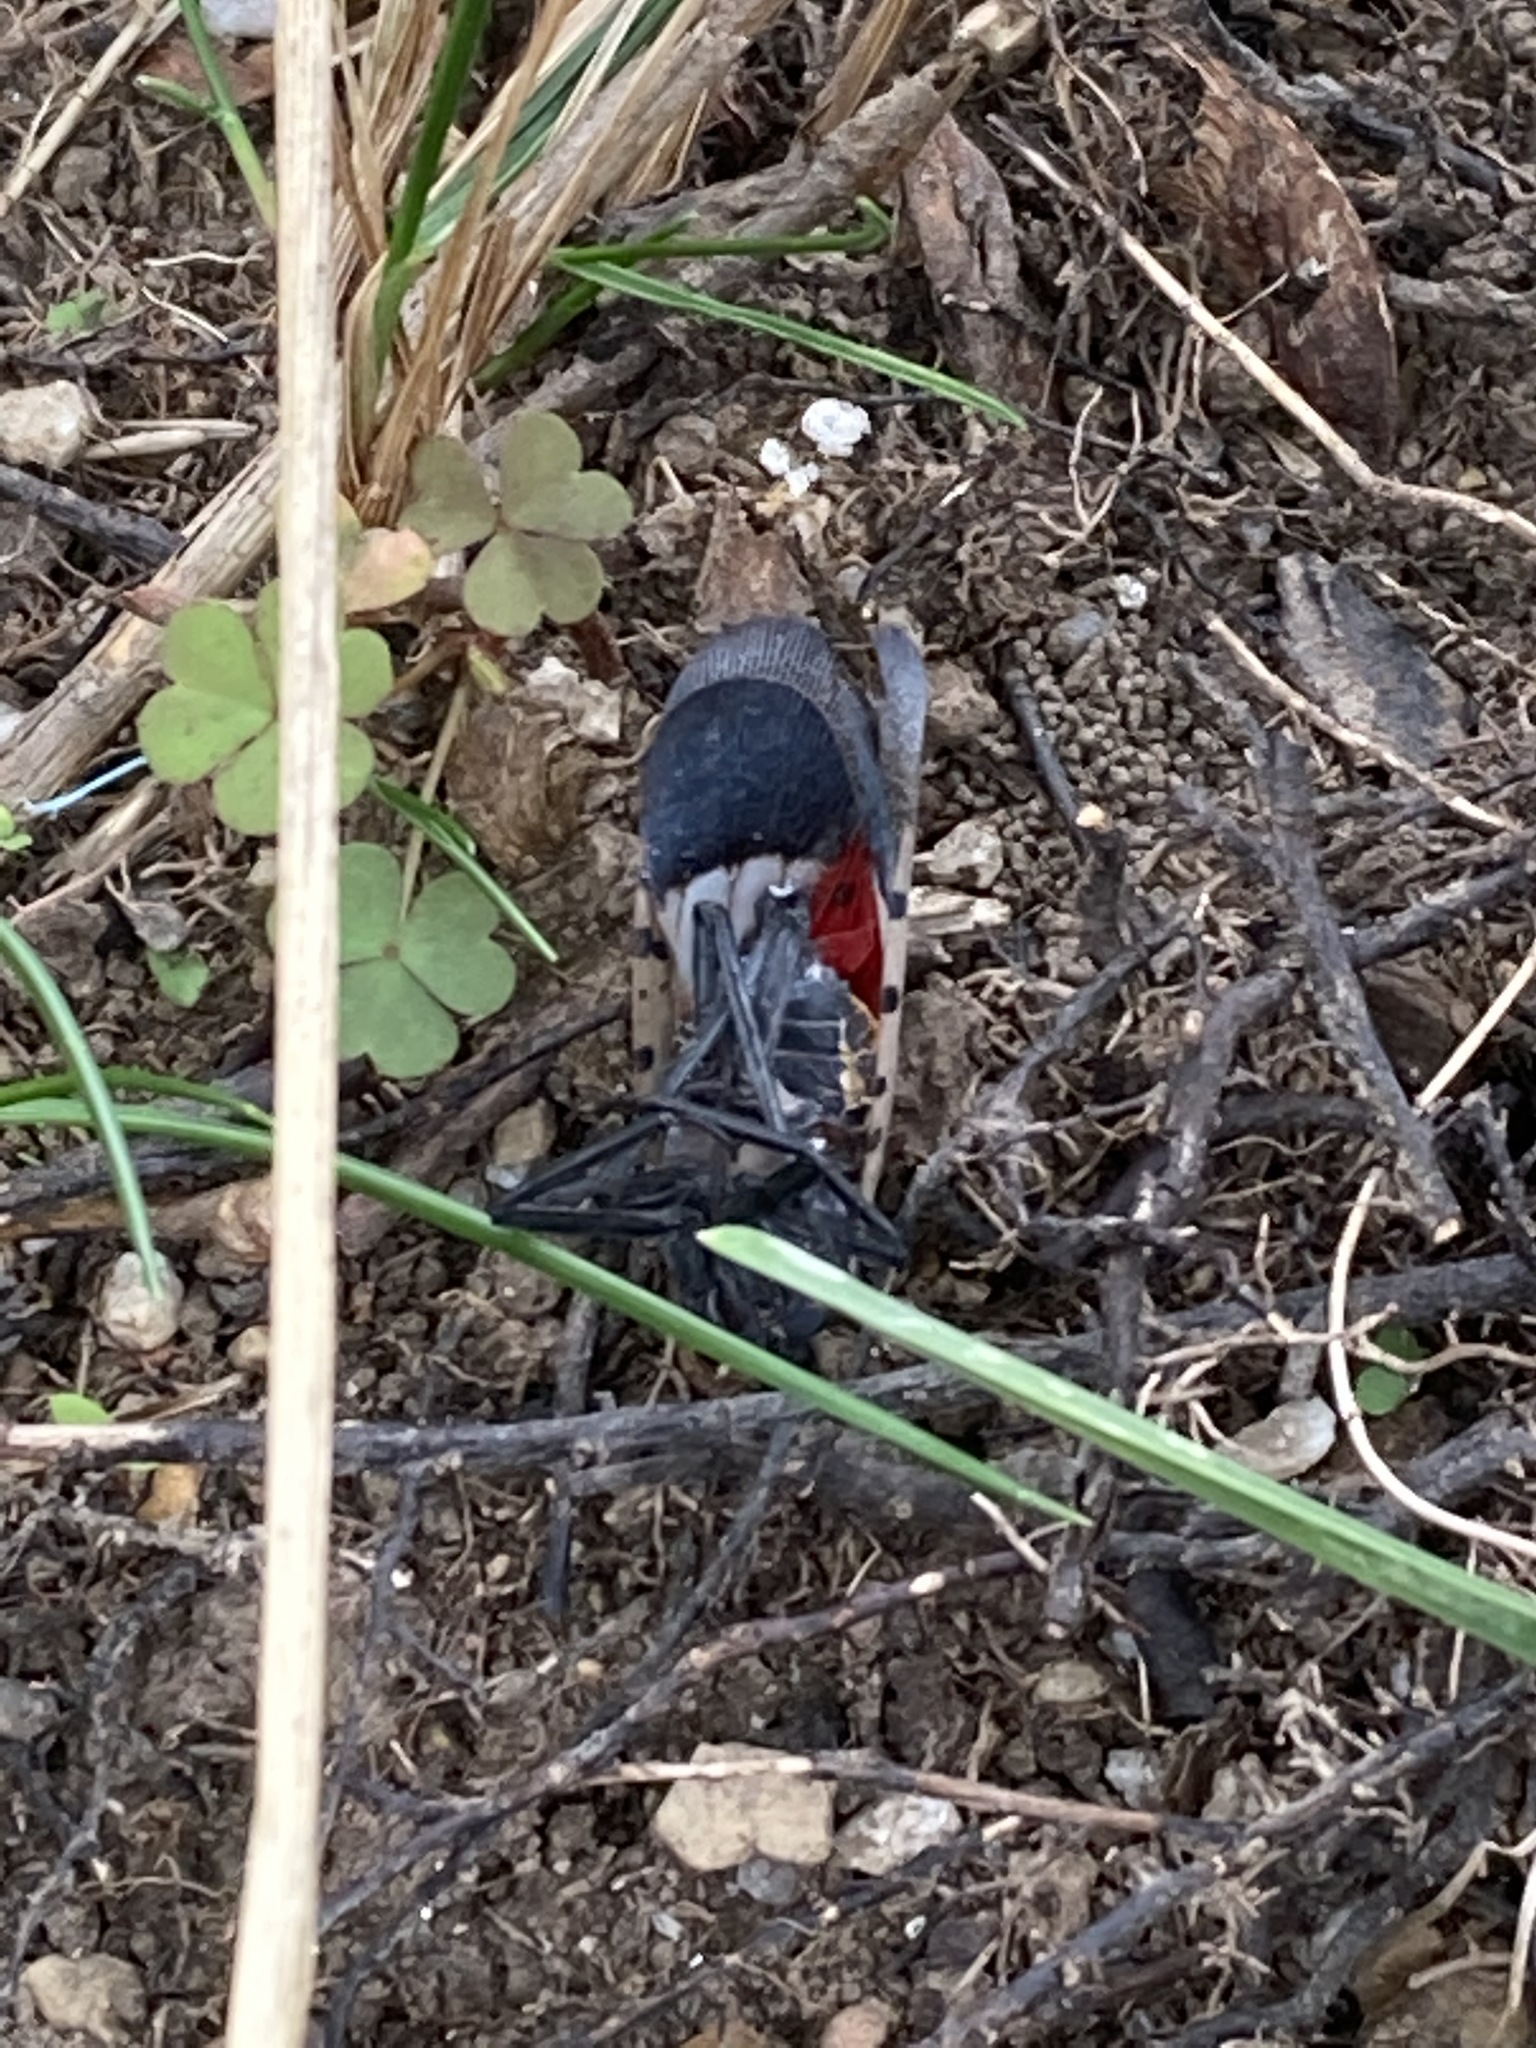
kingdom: Animalia
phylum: Arthropoda
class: Insecta
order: Hemiptera
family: Fulgoridae
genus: Lycorma
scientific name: Lycorma delicatula
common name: Spotted lanternfly
